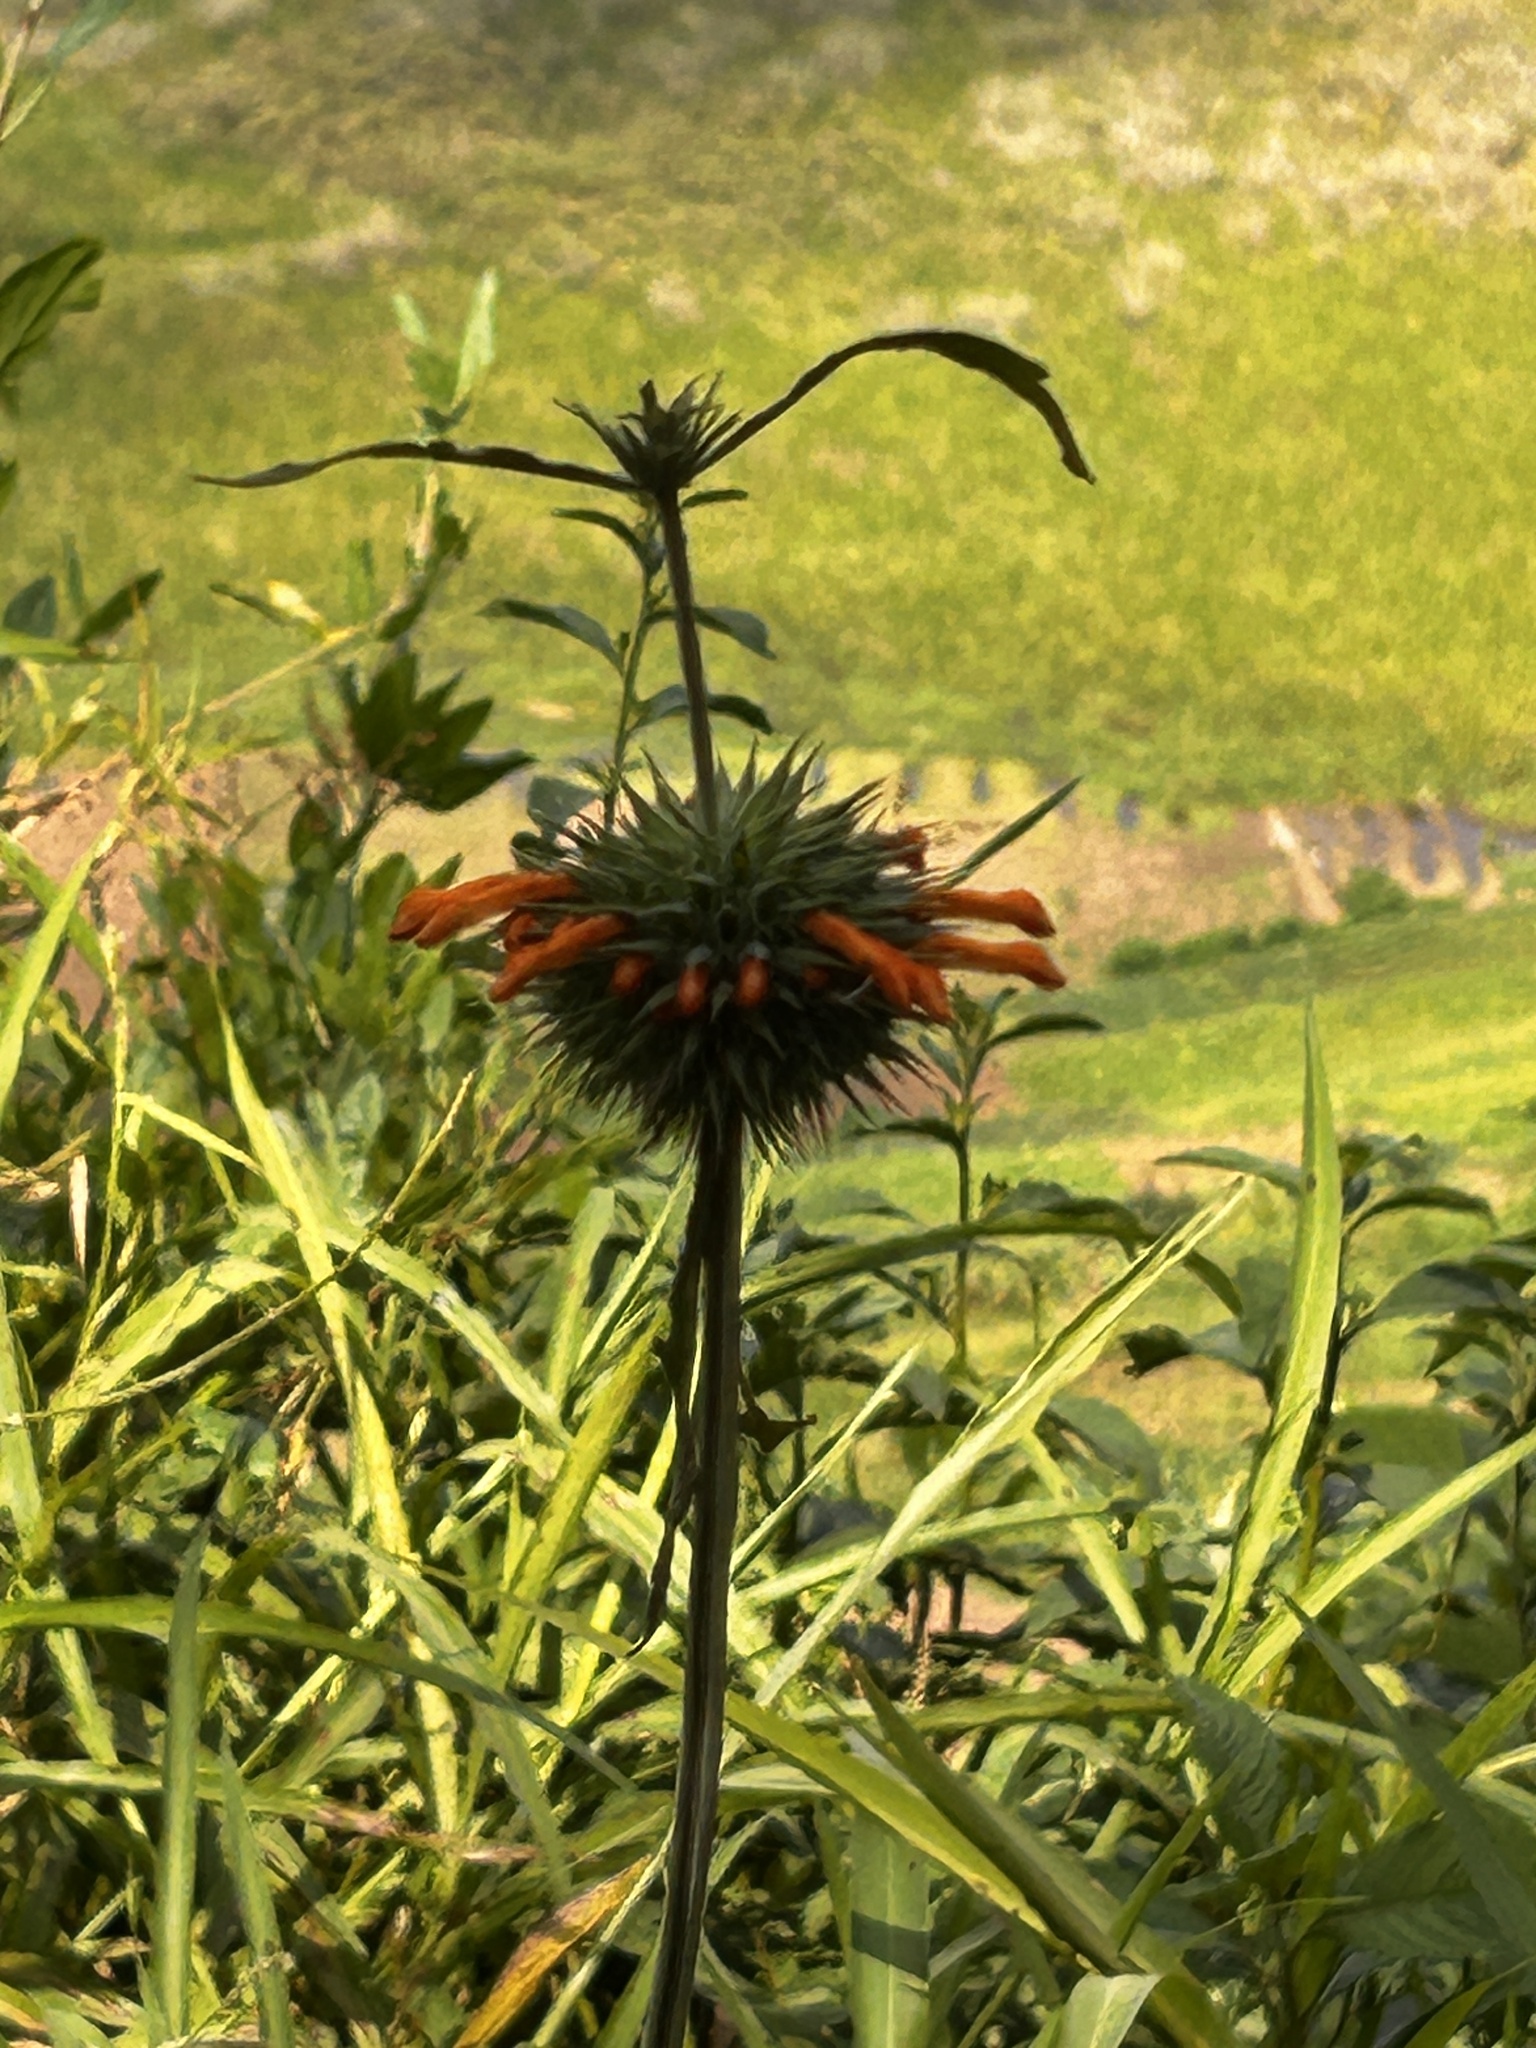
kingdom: Plantae
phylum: Tracheophyta
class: Magnoliopsida
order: Lamiales
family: Lamiaceae
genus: Leonotis
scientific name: Leonotis nepetifolia
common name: Christmas candlestick
